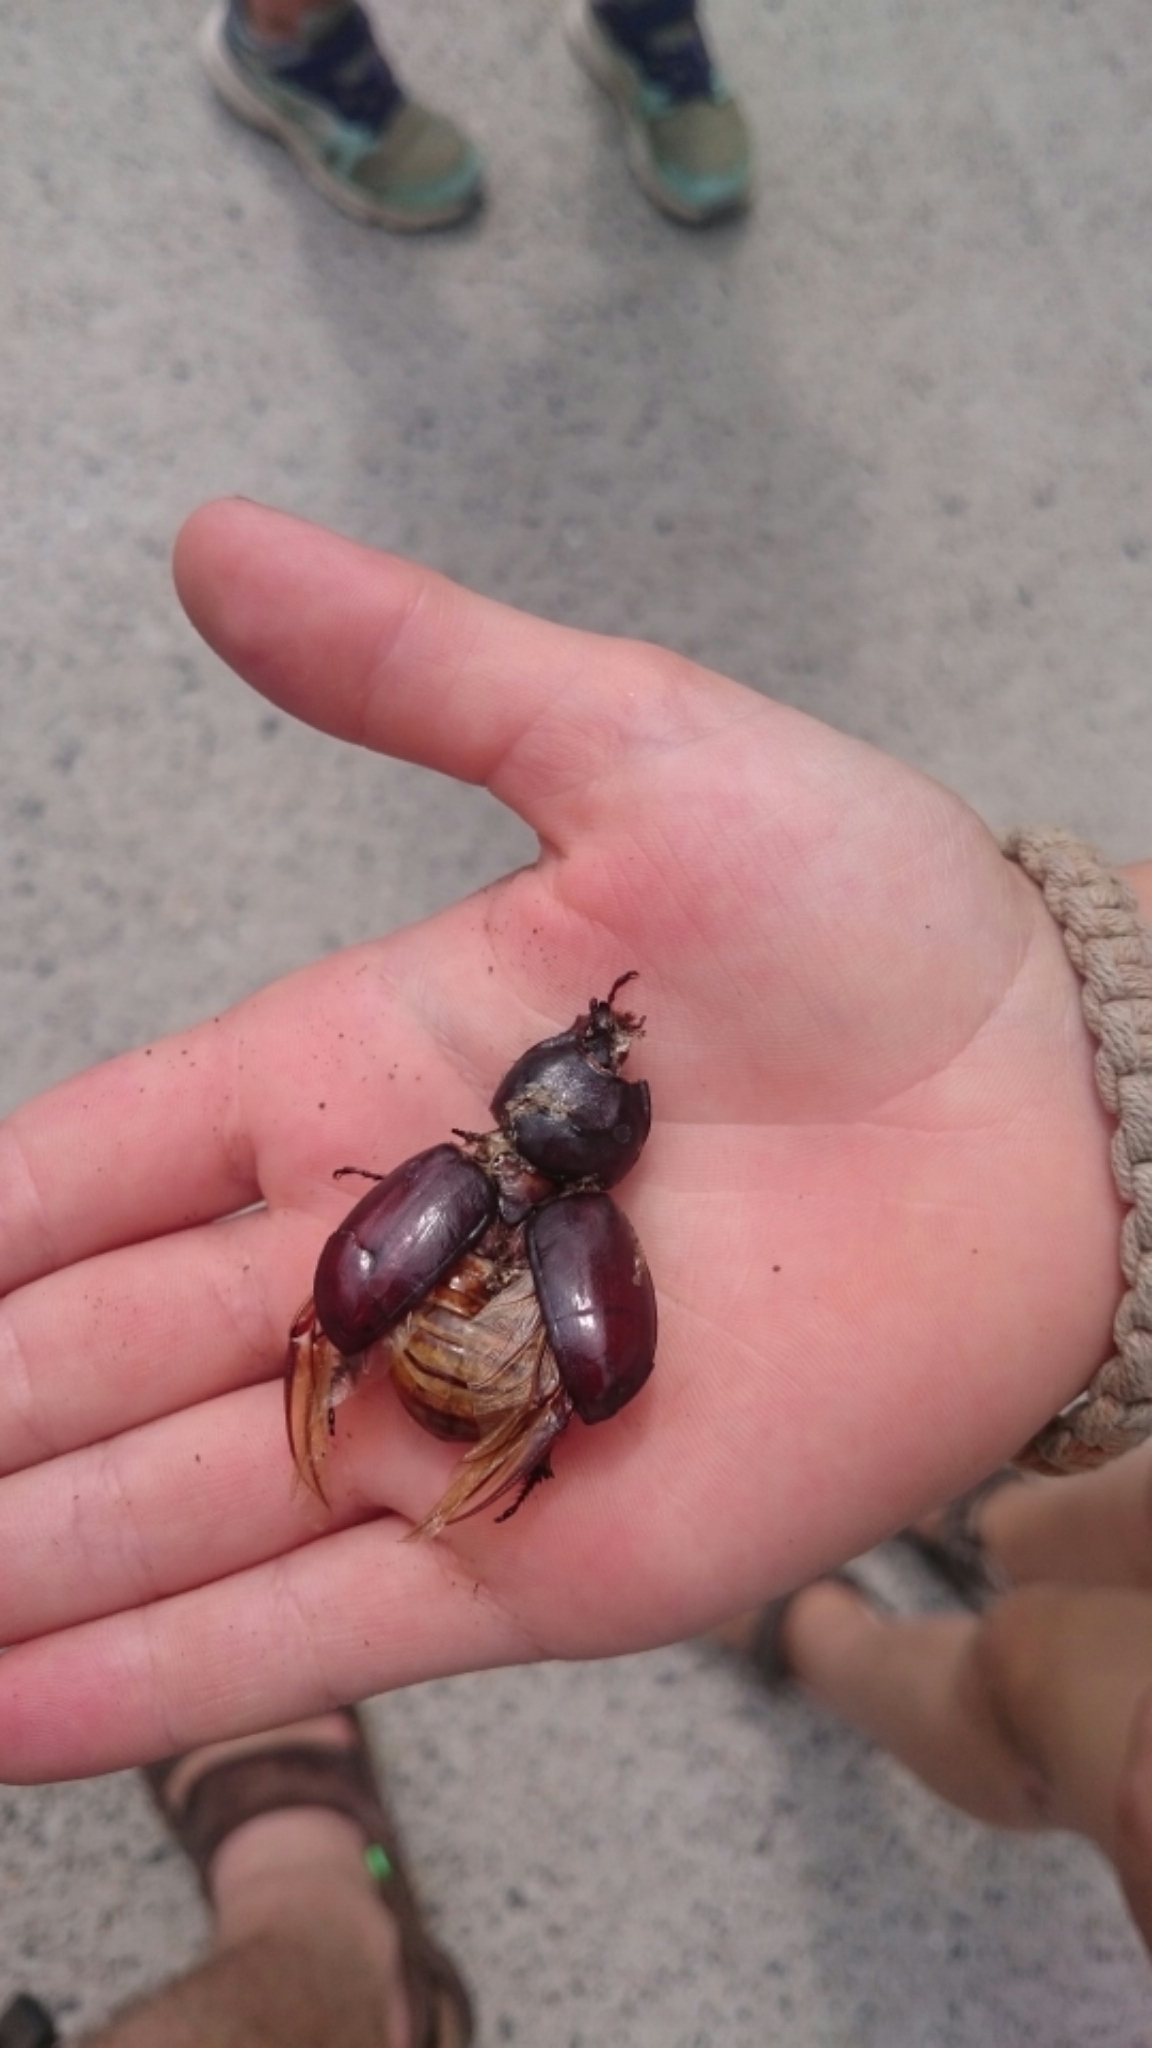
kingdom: Animalia
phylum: Arthropoda
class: Insecta
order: Coleoptera
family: Scarabaeidae
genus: Oryctes
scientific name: Oryctes nasicornis
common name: European rhinoceros beetle
